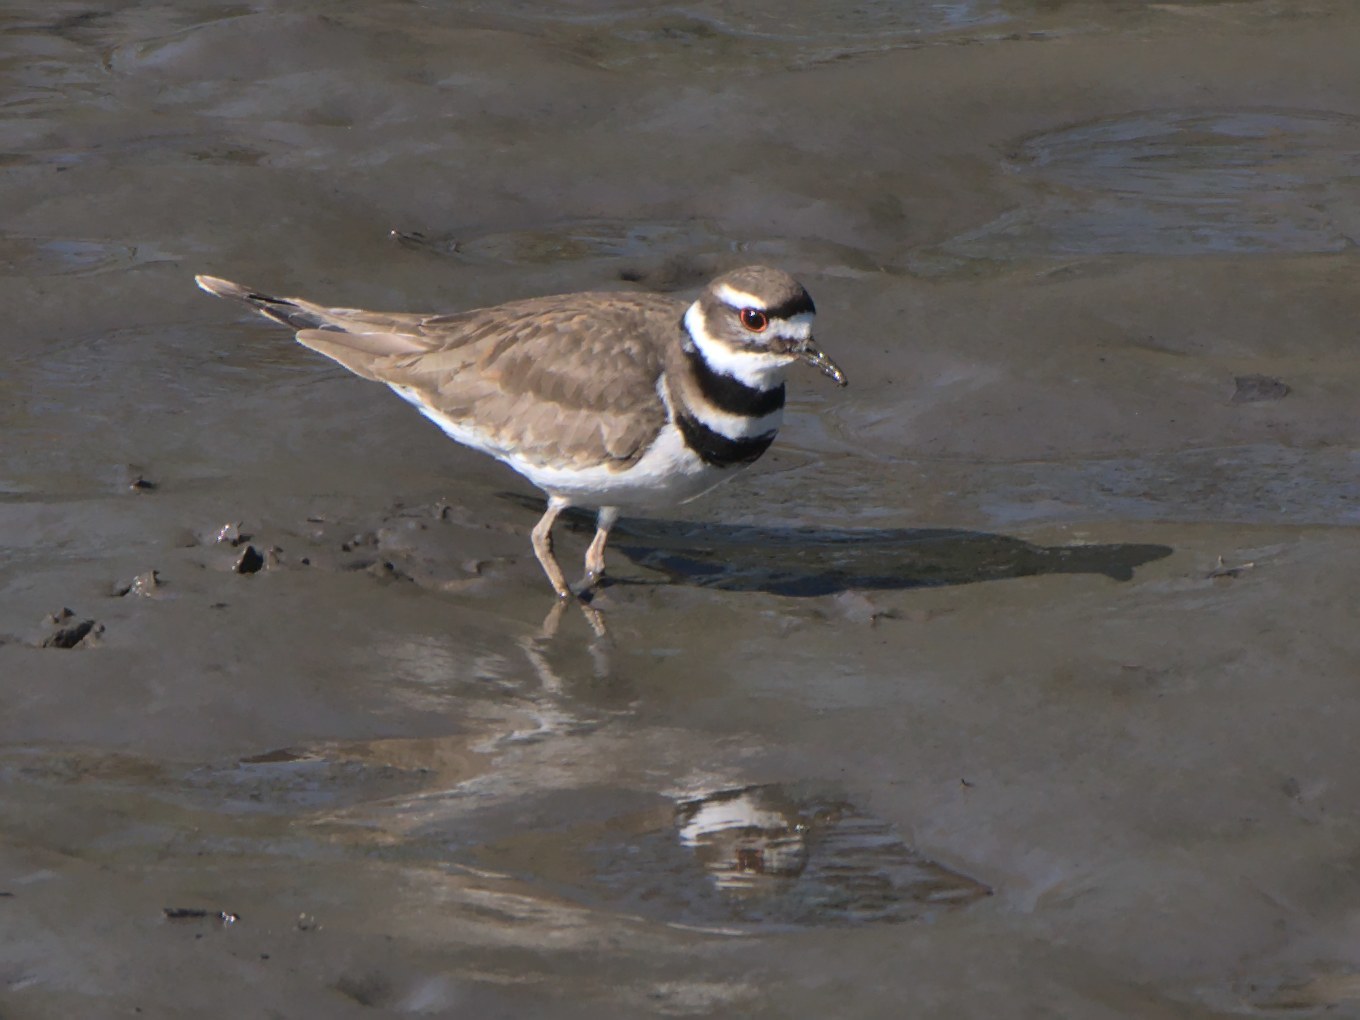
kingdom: Animalia
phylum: Chordata
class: Aves
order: Charadriiformes
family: Charadriidae
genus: Charadrius
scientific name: Charadrius vociferus
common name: Killdeer
